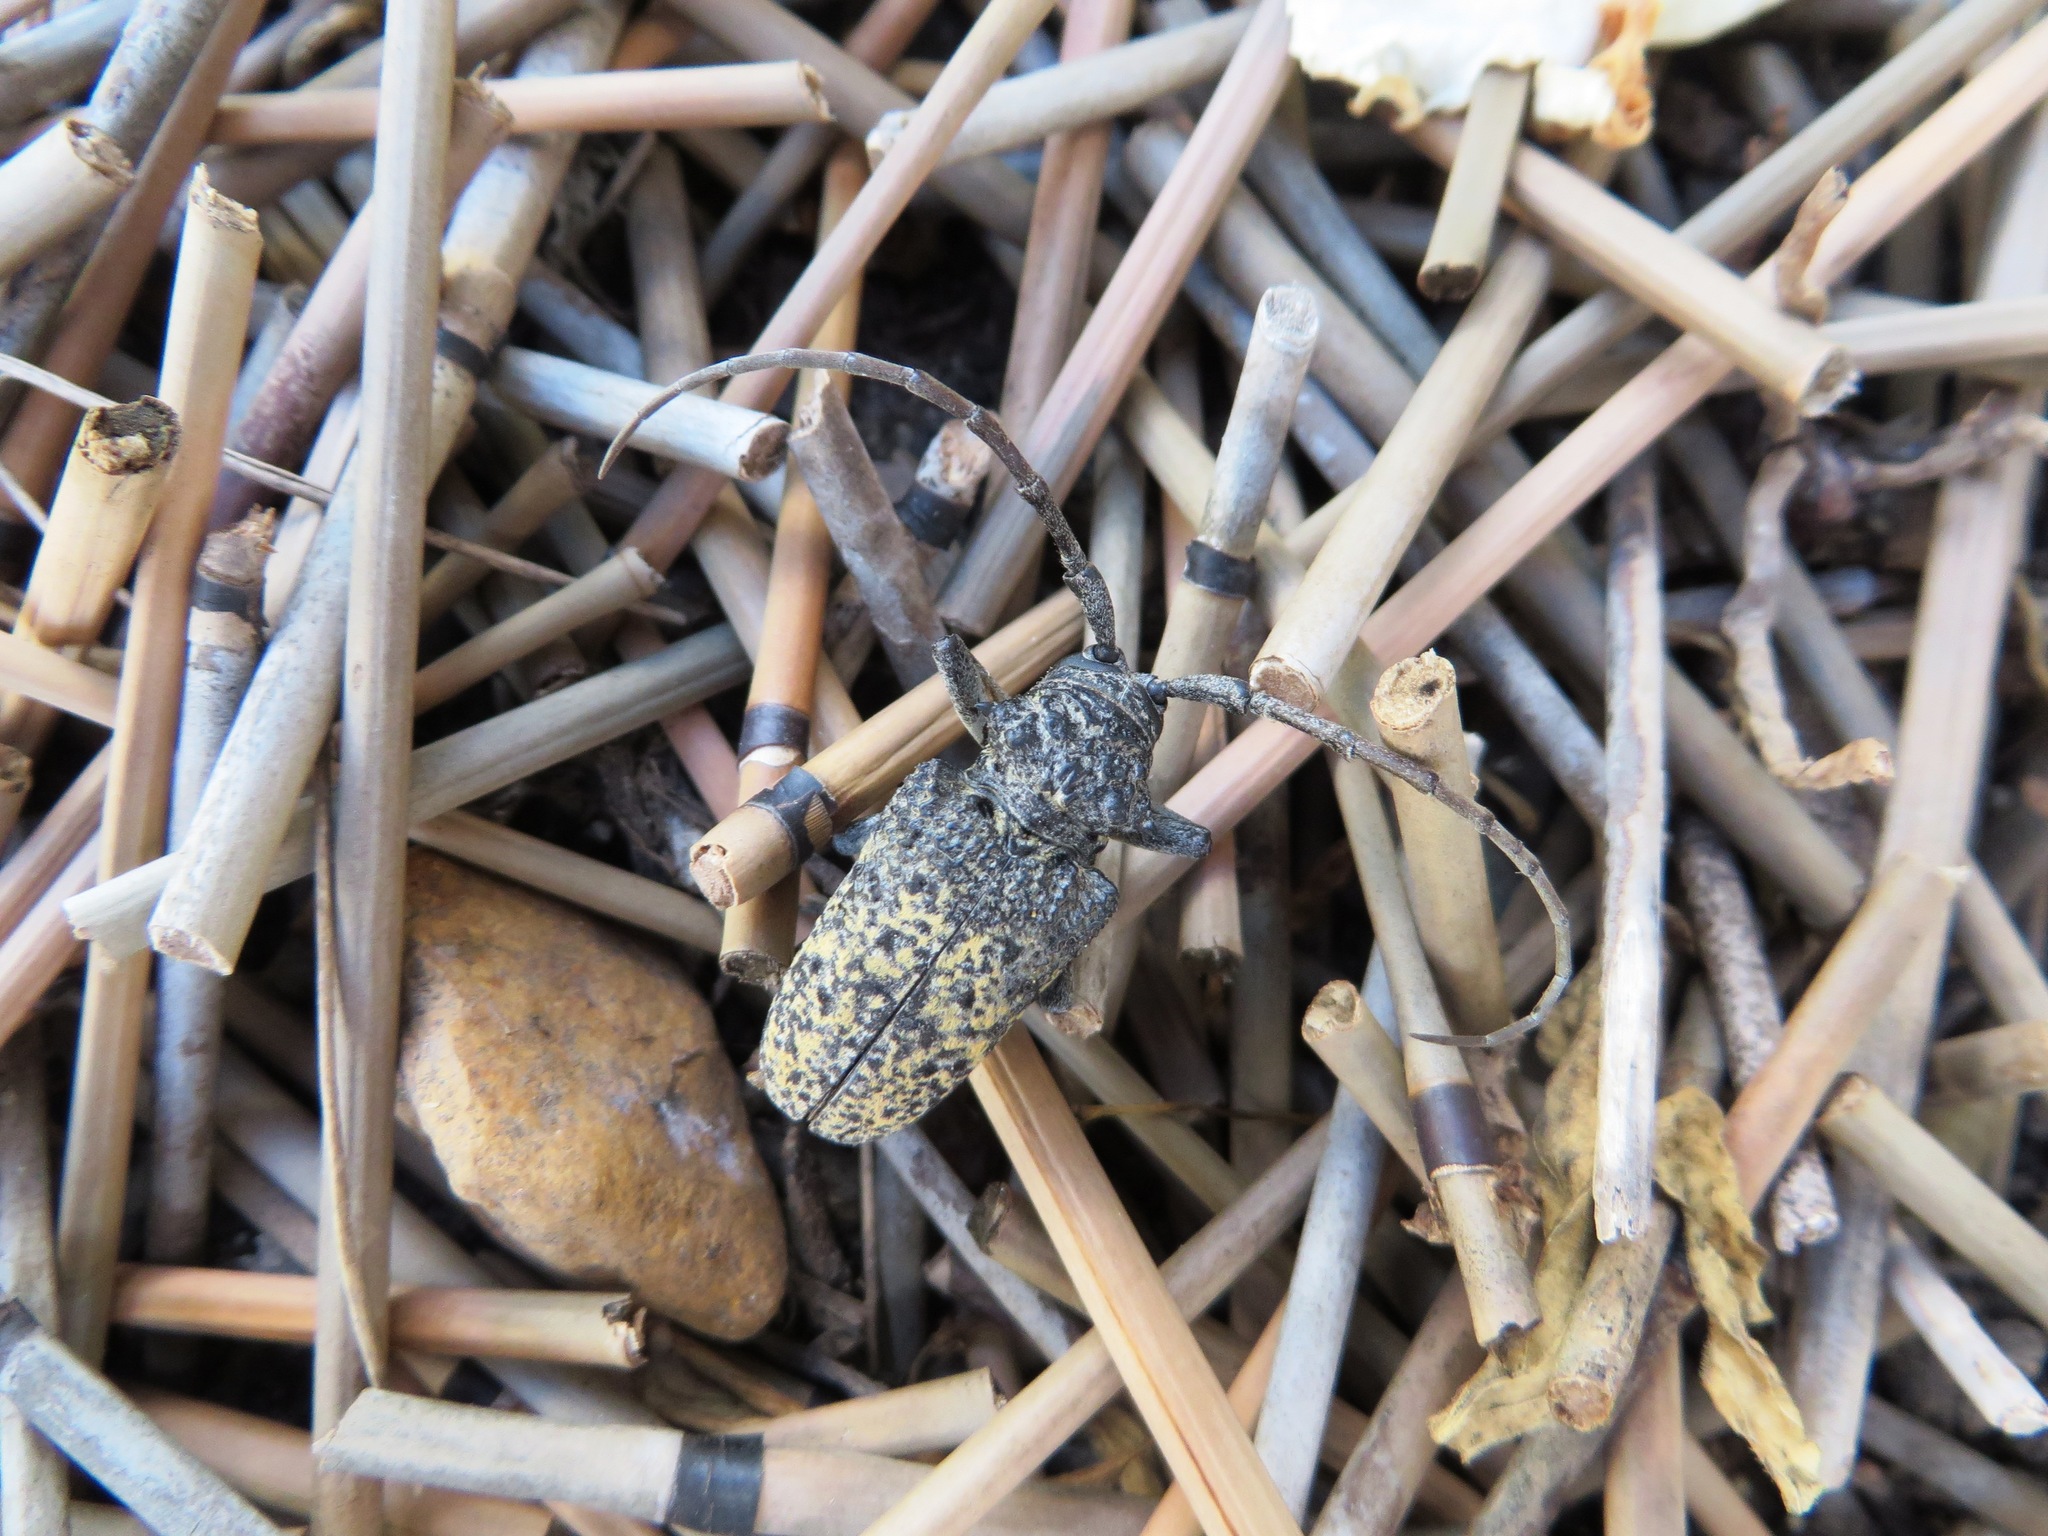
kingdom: Animalia
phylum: Arthropoda
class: Insecta
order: Coleoptera
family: Cerambycidae
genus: Phryneta
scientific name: Phryneta spinator
